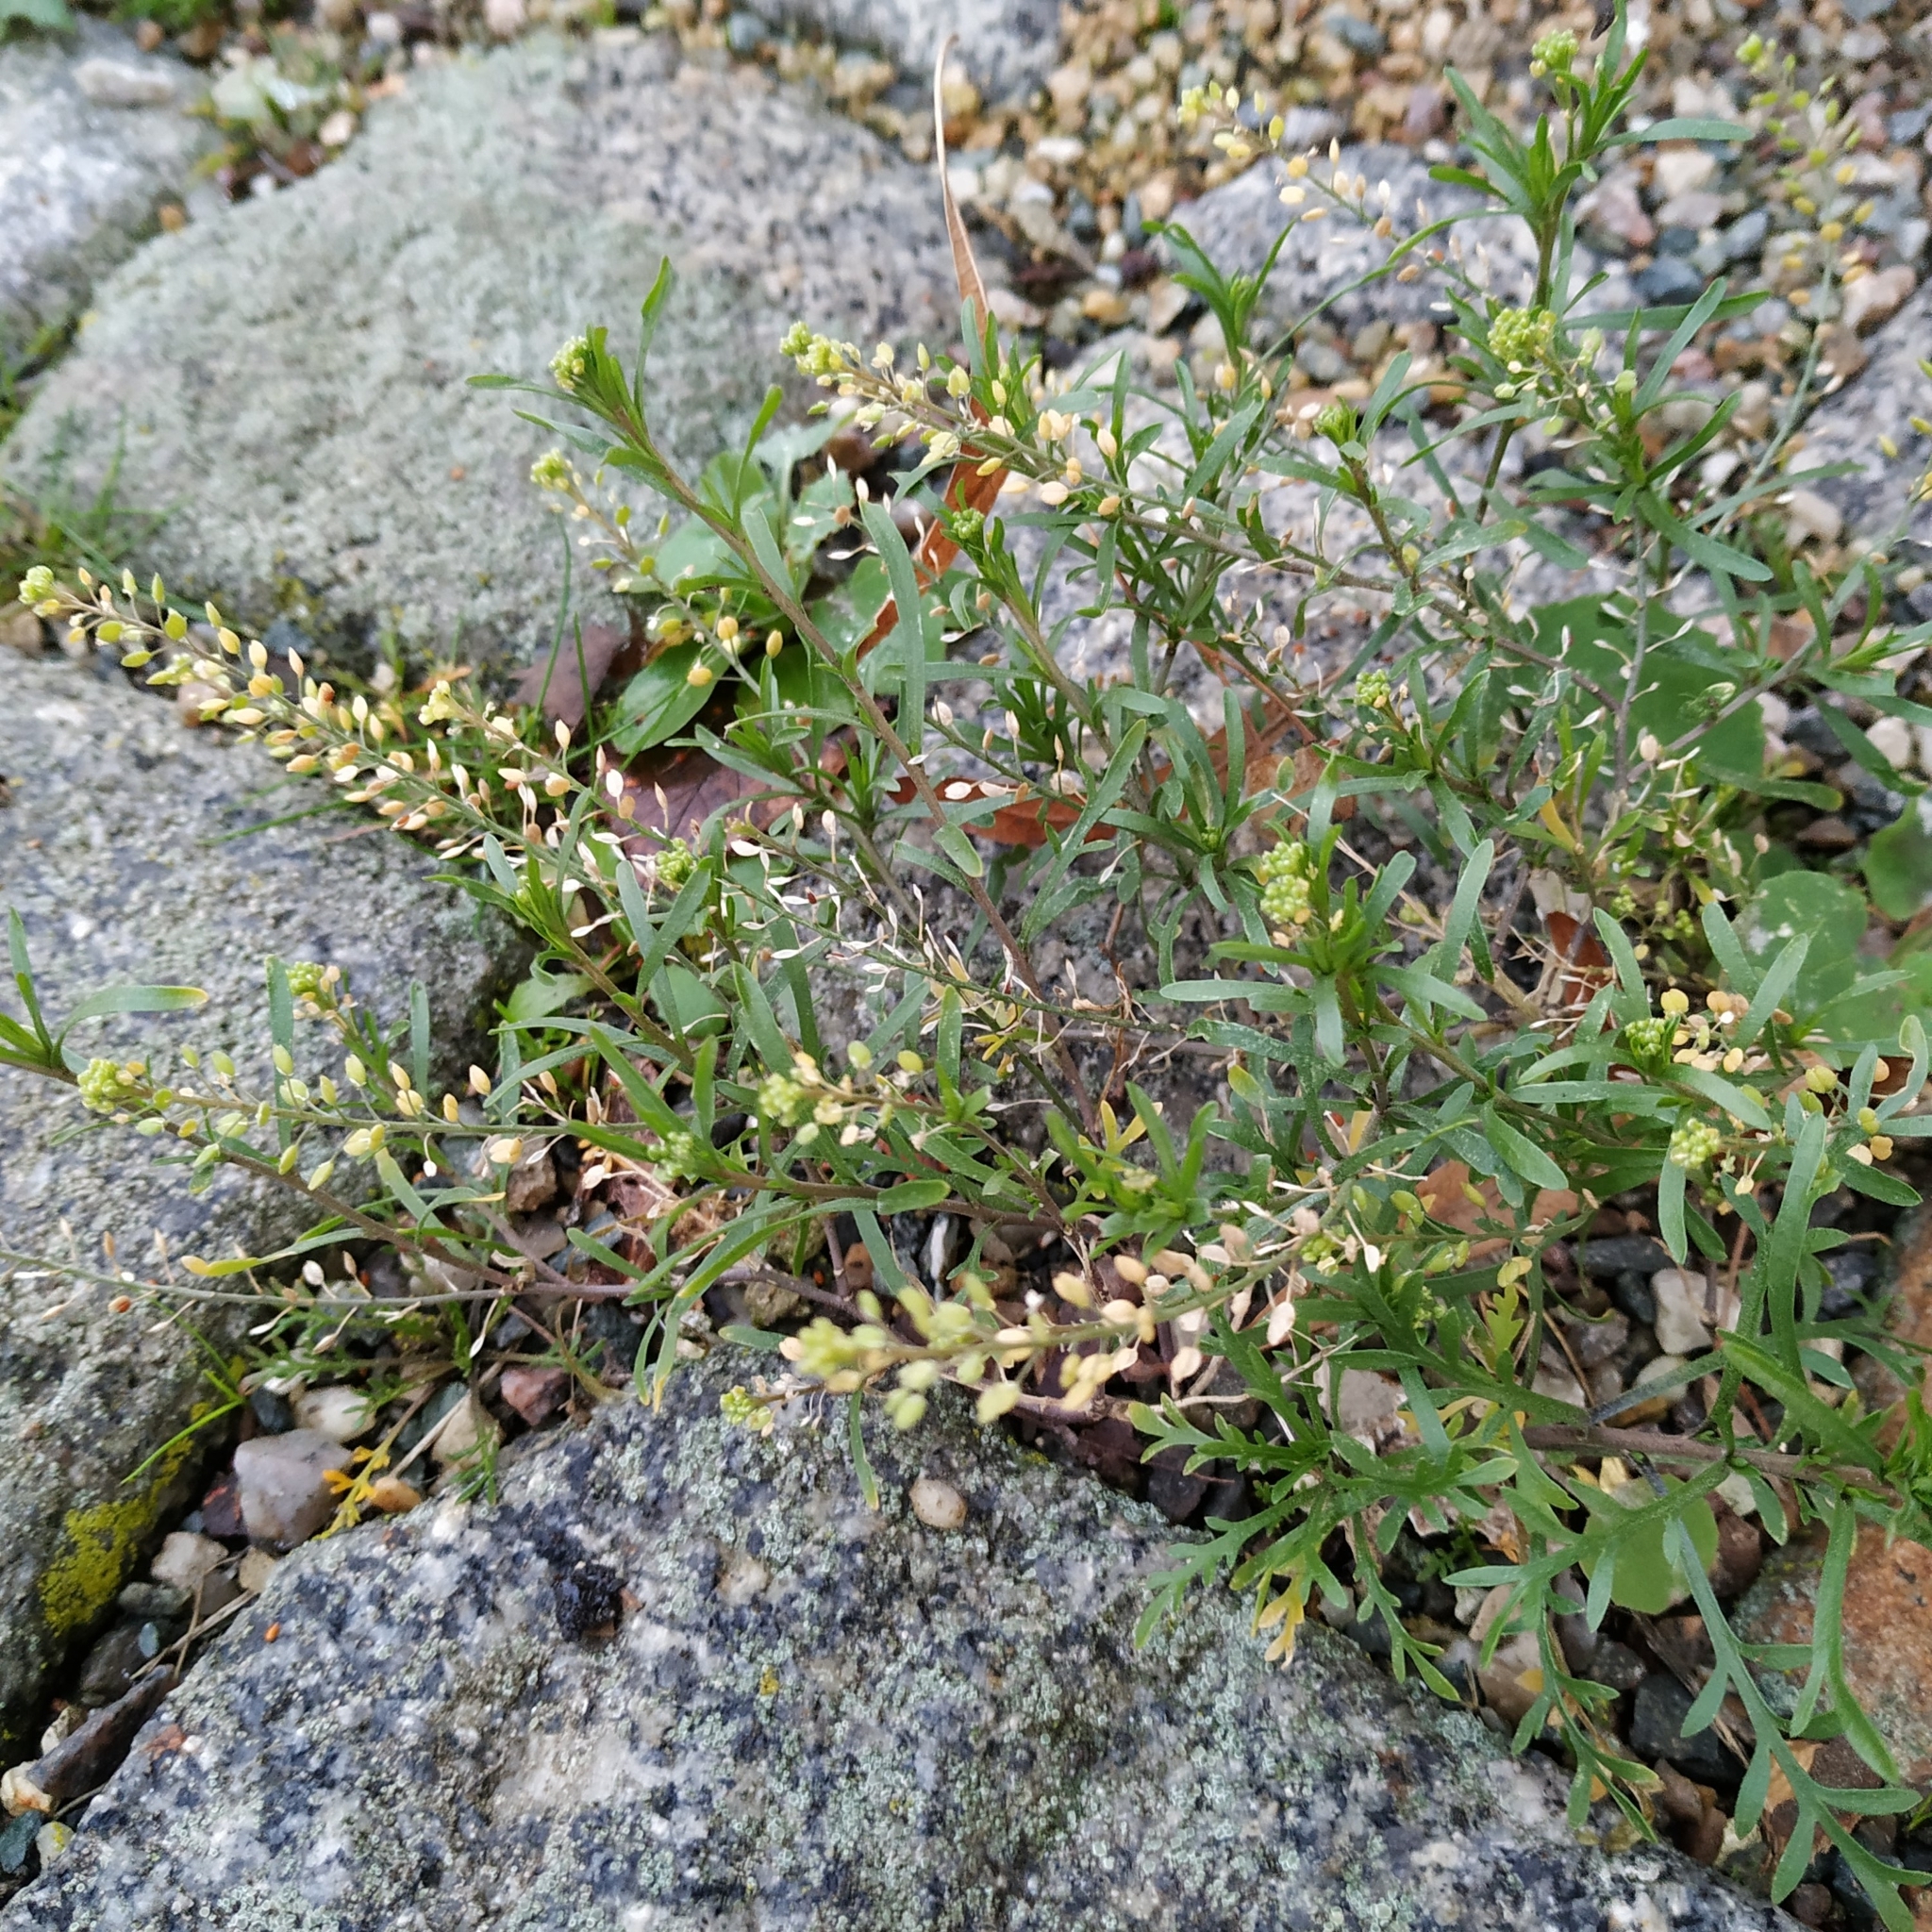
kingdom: Plantae
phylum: Tracheophyta
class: Magnoliopsida
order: Brassicales
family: Brassicaceae
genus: Lepidium
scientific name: Lepidium ruderale
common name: Narrow-leaved pepperwort
